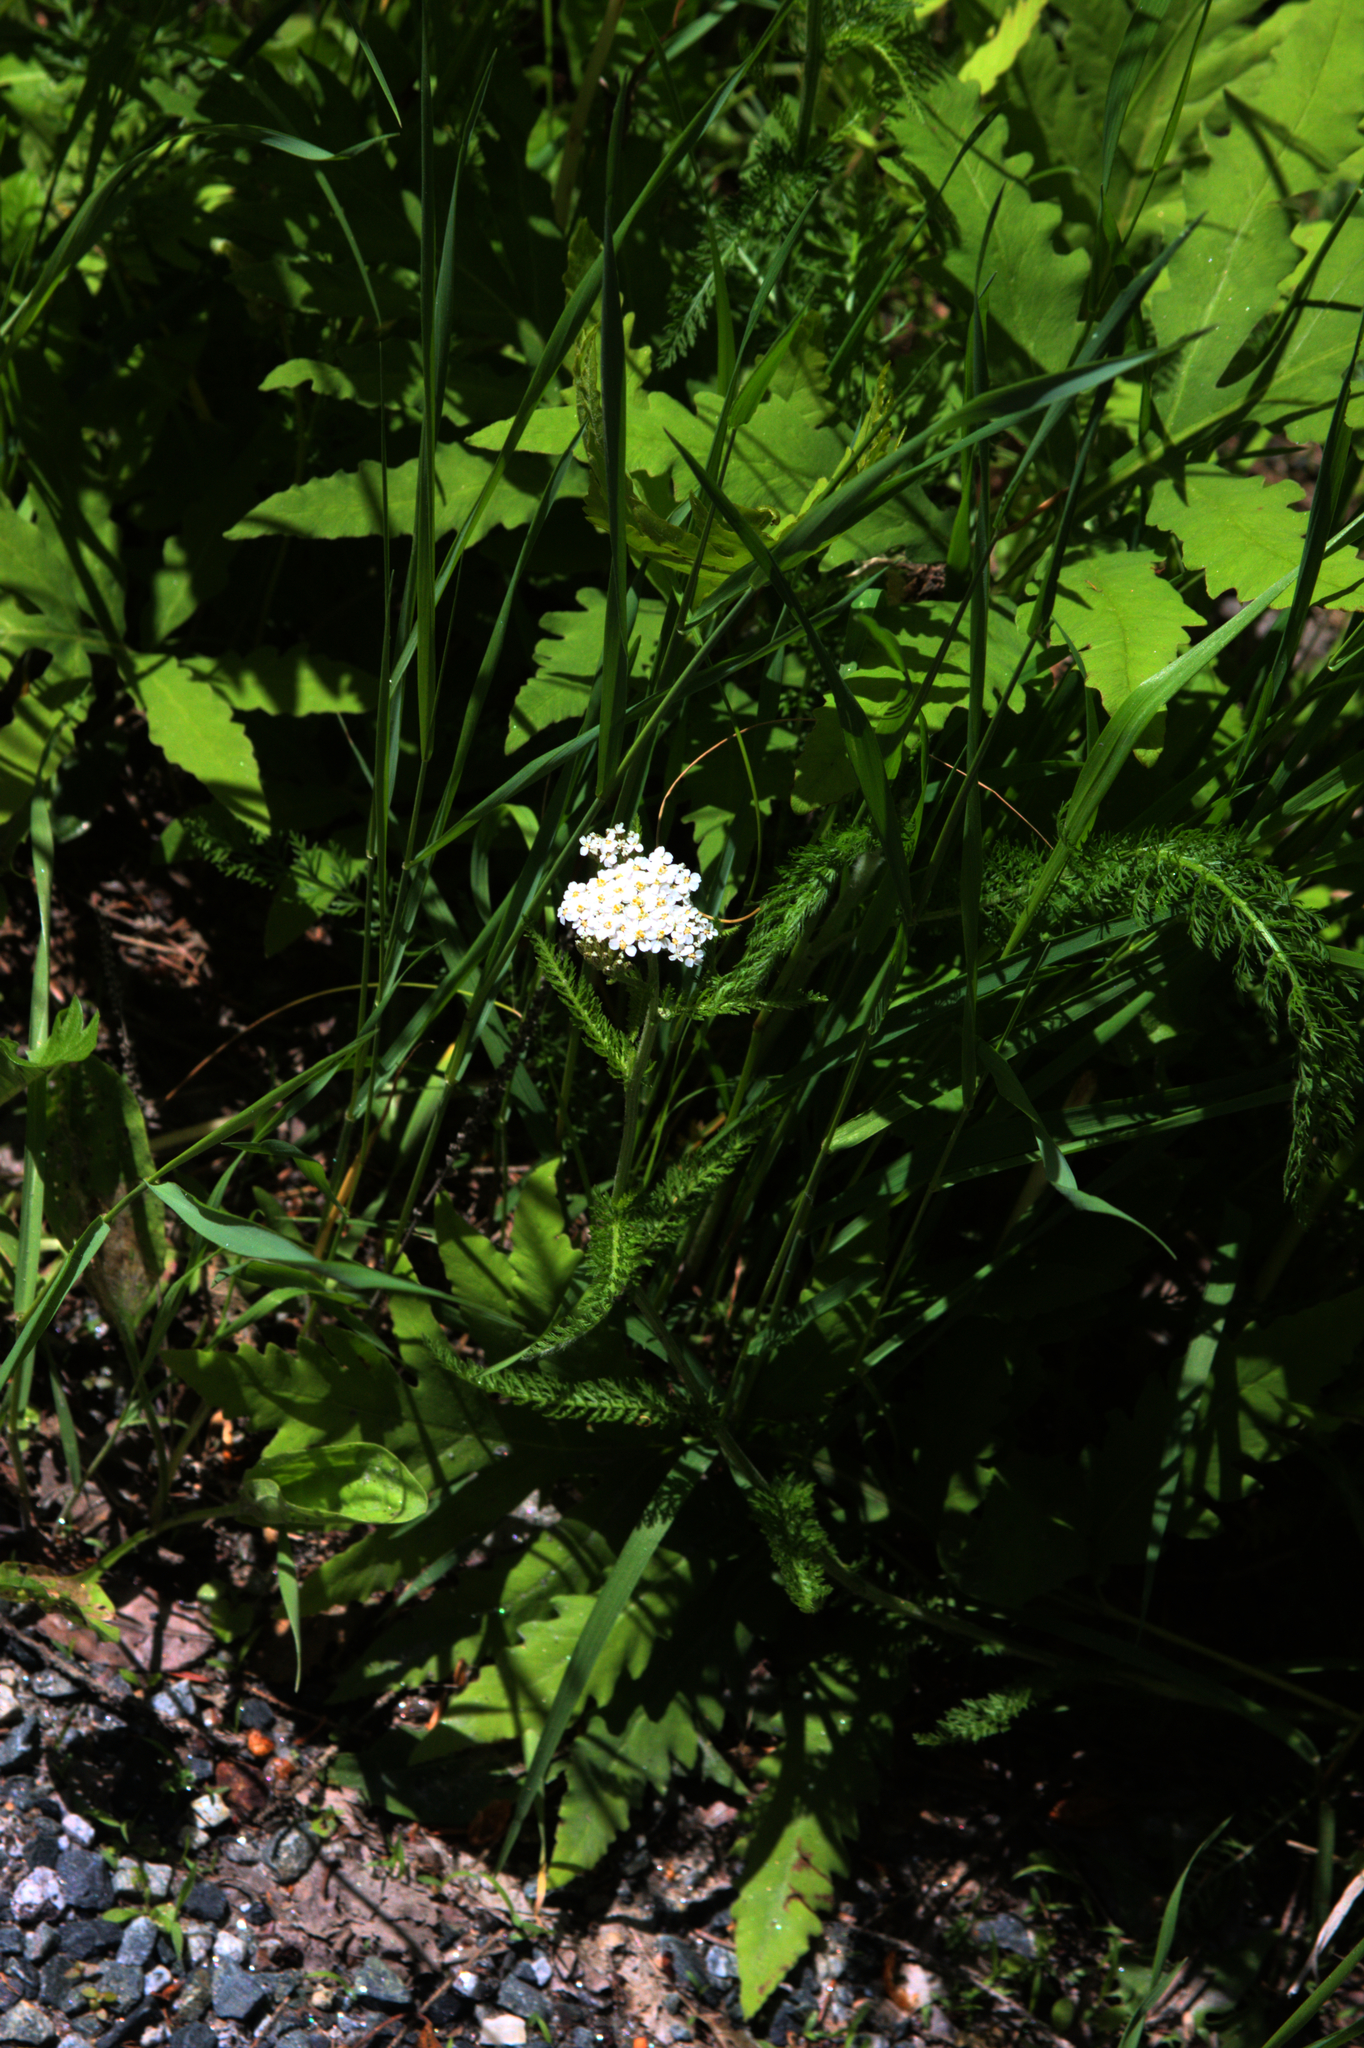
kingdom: Plantae
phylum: Tracheophyta
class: Magnoliopsida
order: Asterales
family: Asteraceae
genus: Achillea
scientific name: Achillea millefolium
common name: Yarrow
